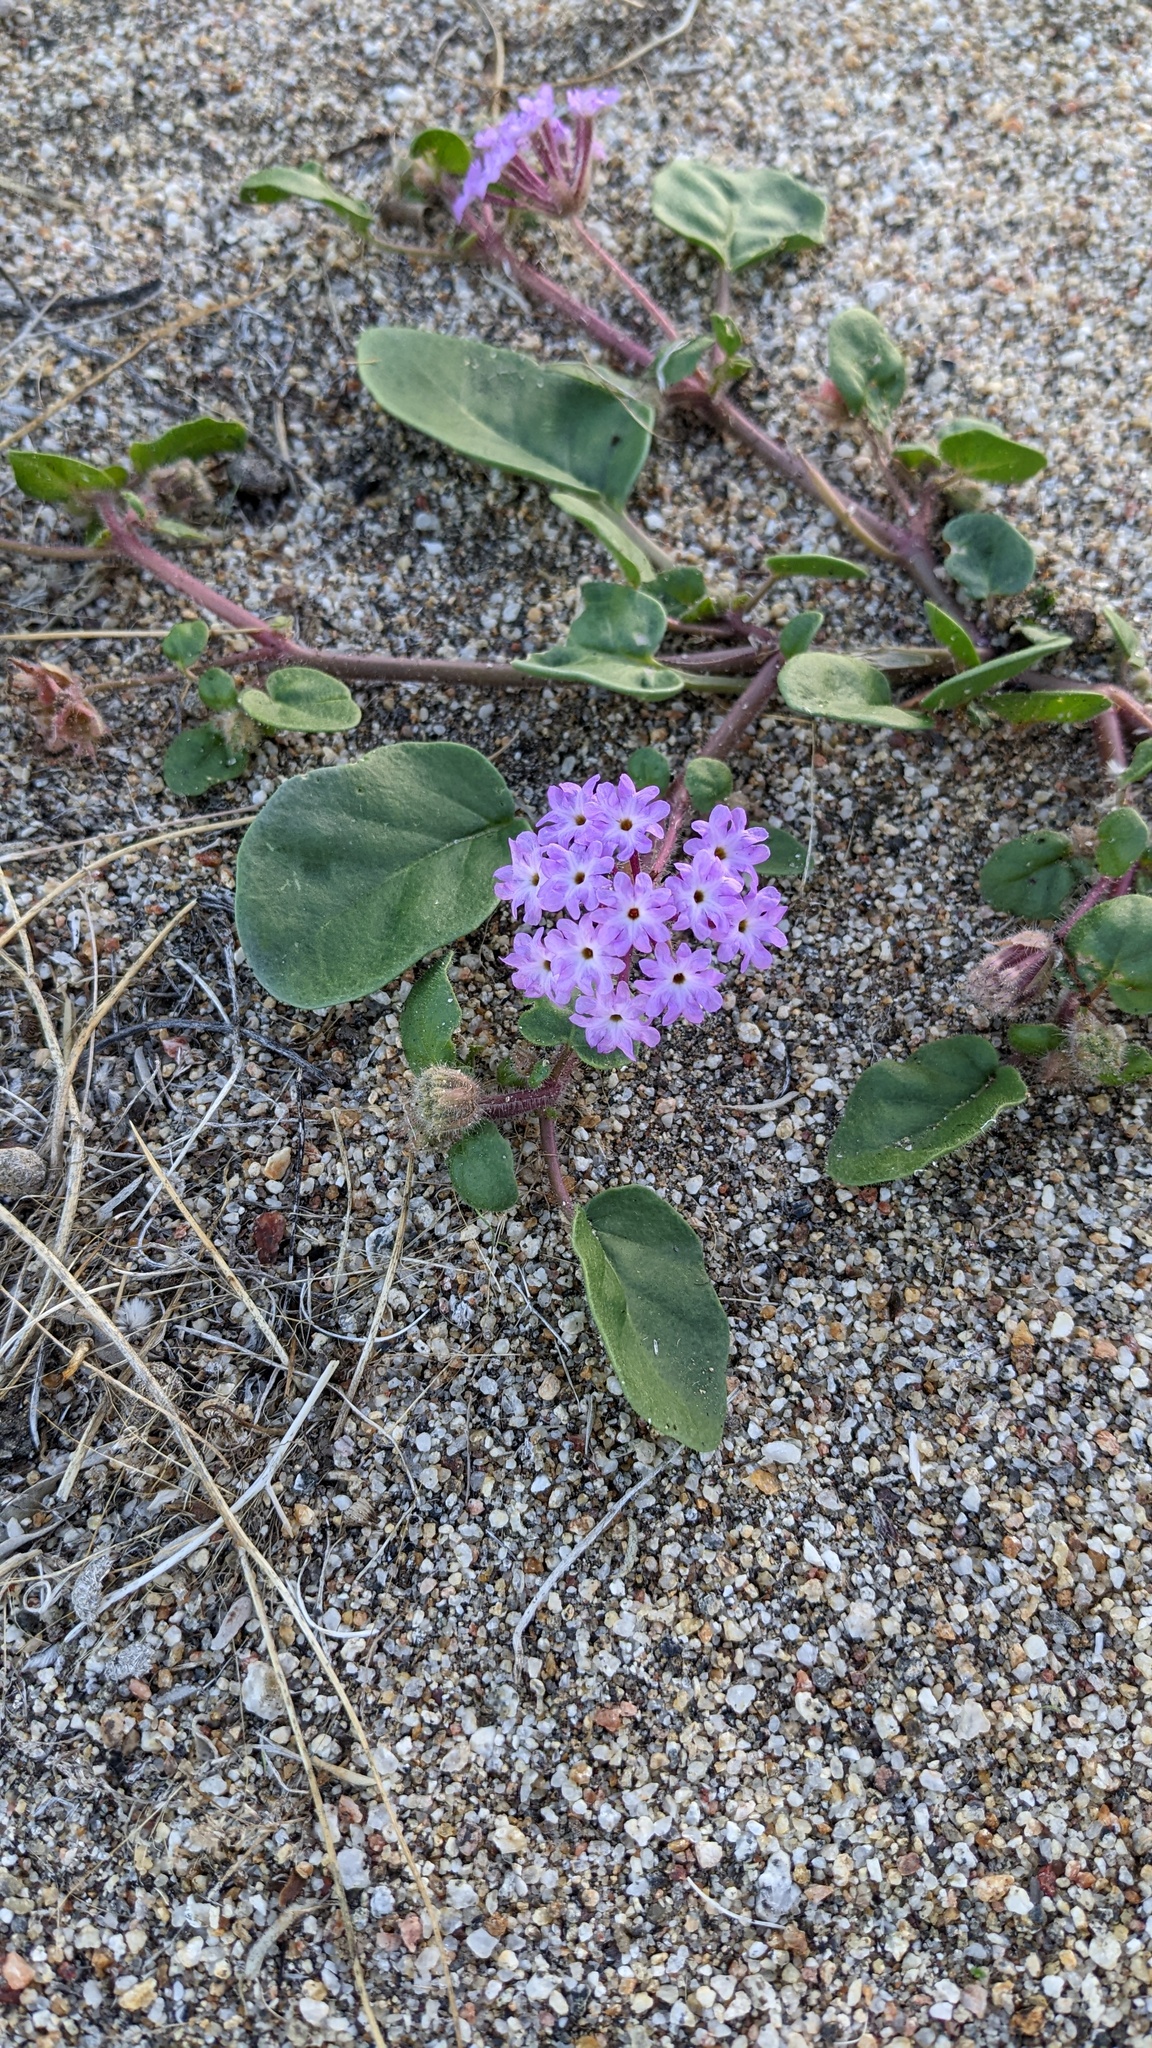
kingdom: Plantae
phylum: Tracheophyta
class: Magnoliopsida
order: Caryophyllales
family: Nyctaginaceae
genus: Abronia
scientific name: Abronia villosa
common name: Desert sand-verbena
